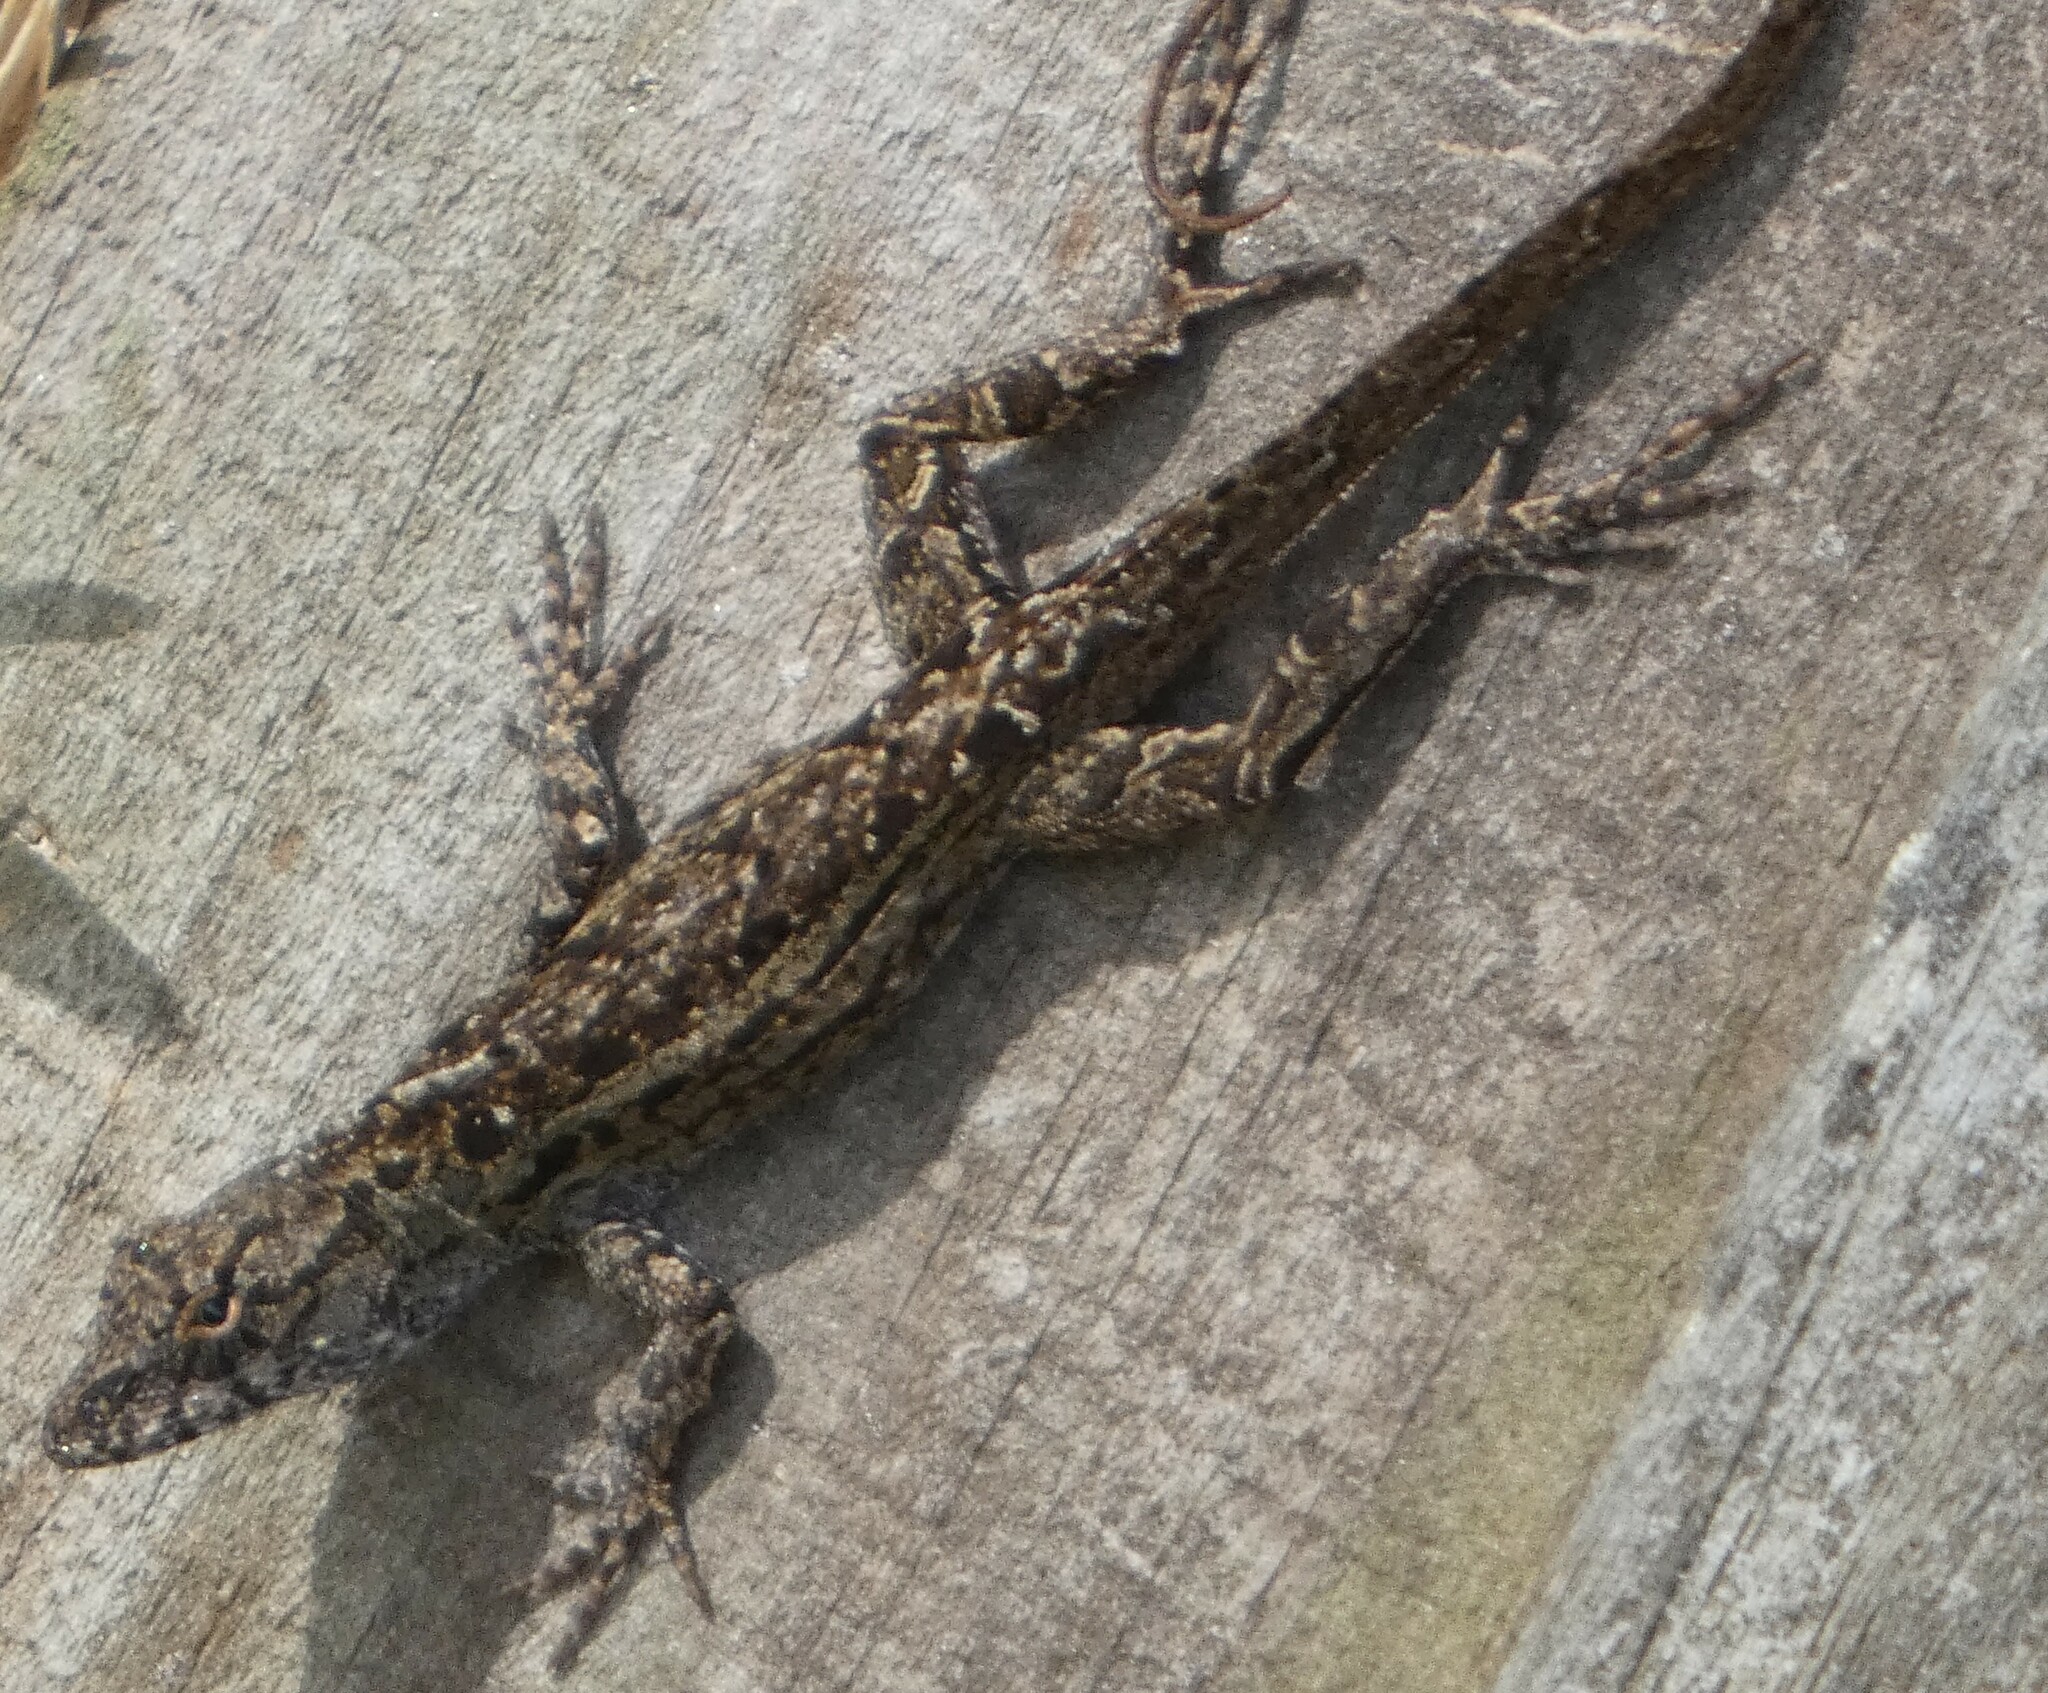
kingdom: Animalia
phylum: Chordata
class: Squamata
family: Dactyloidae
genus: Anolis
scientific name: Anolis sagrei
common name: Brown anole
